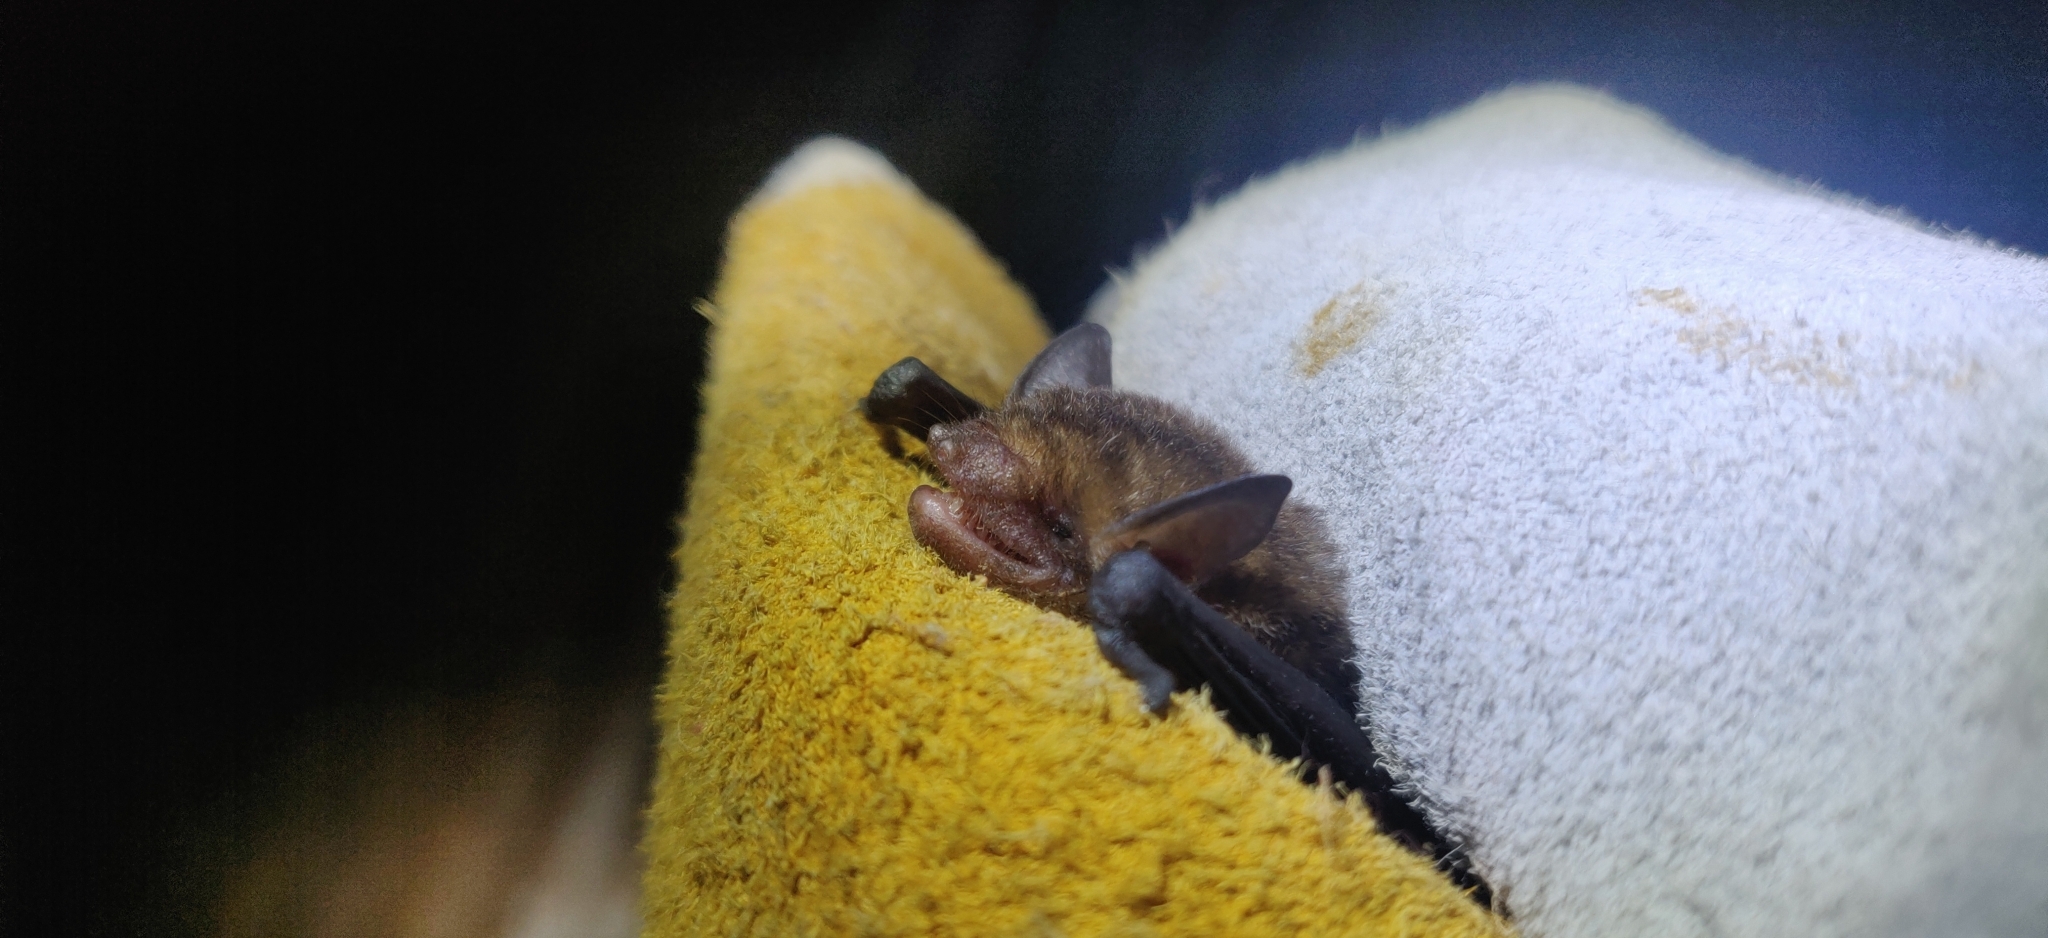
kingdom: Animalia
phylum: Chordata
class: Mammalia
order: Chiroptera
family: Vespertilionidae
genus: Rhogeessa
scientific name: Rhogeessa io
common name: Thomas's yellow bat
